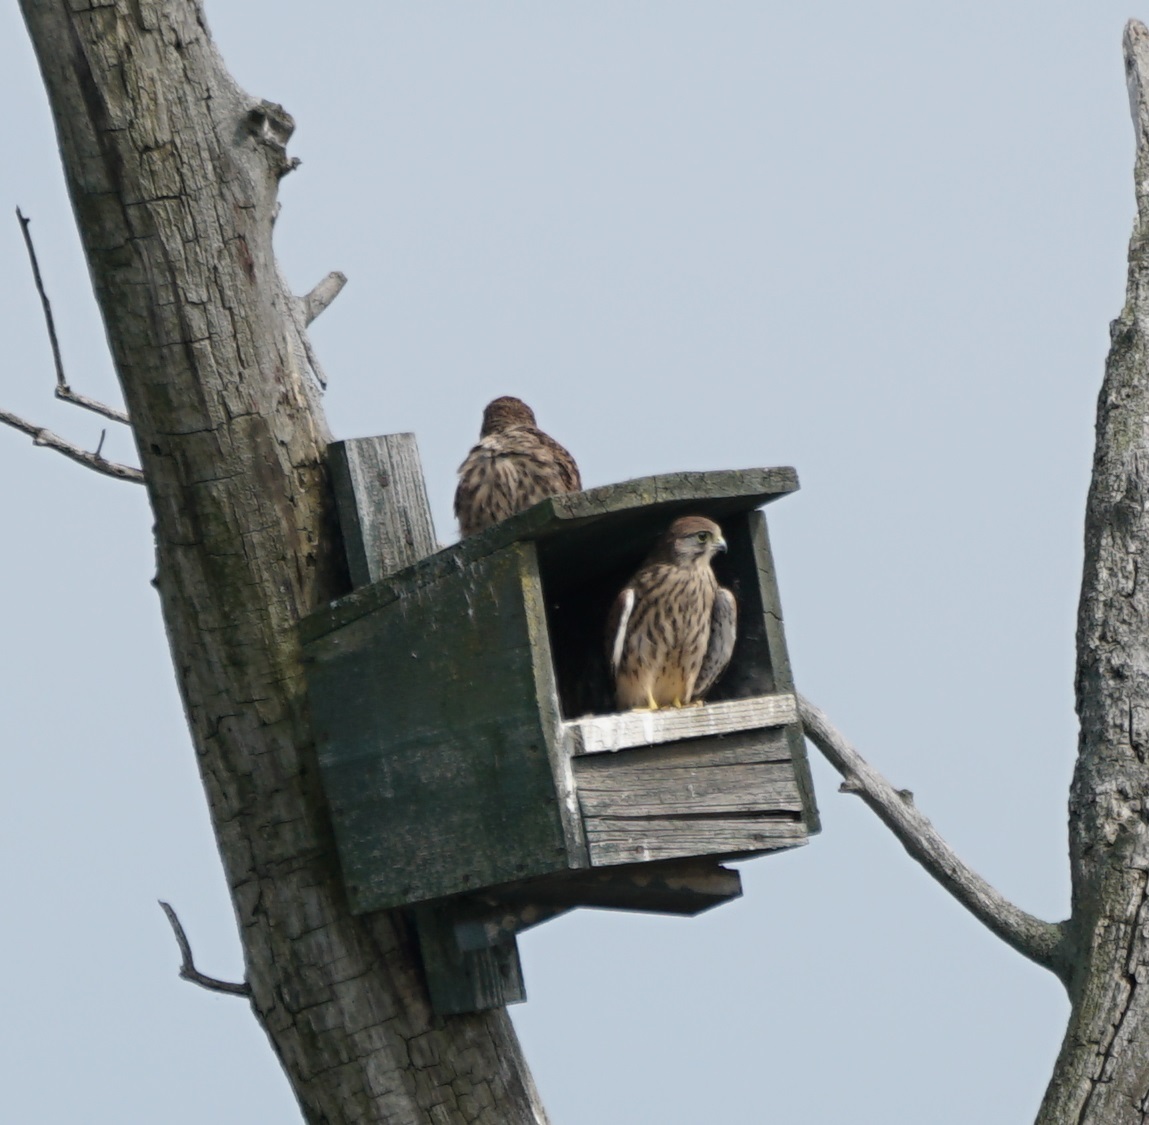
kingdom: Animalia
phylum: Chordata
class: Aves
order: Falconiformes
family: Falconidae
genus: Falco
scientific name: Falco tinnunculus
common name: Common kestrel
